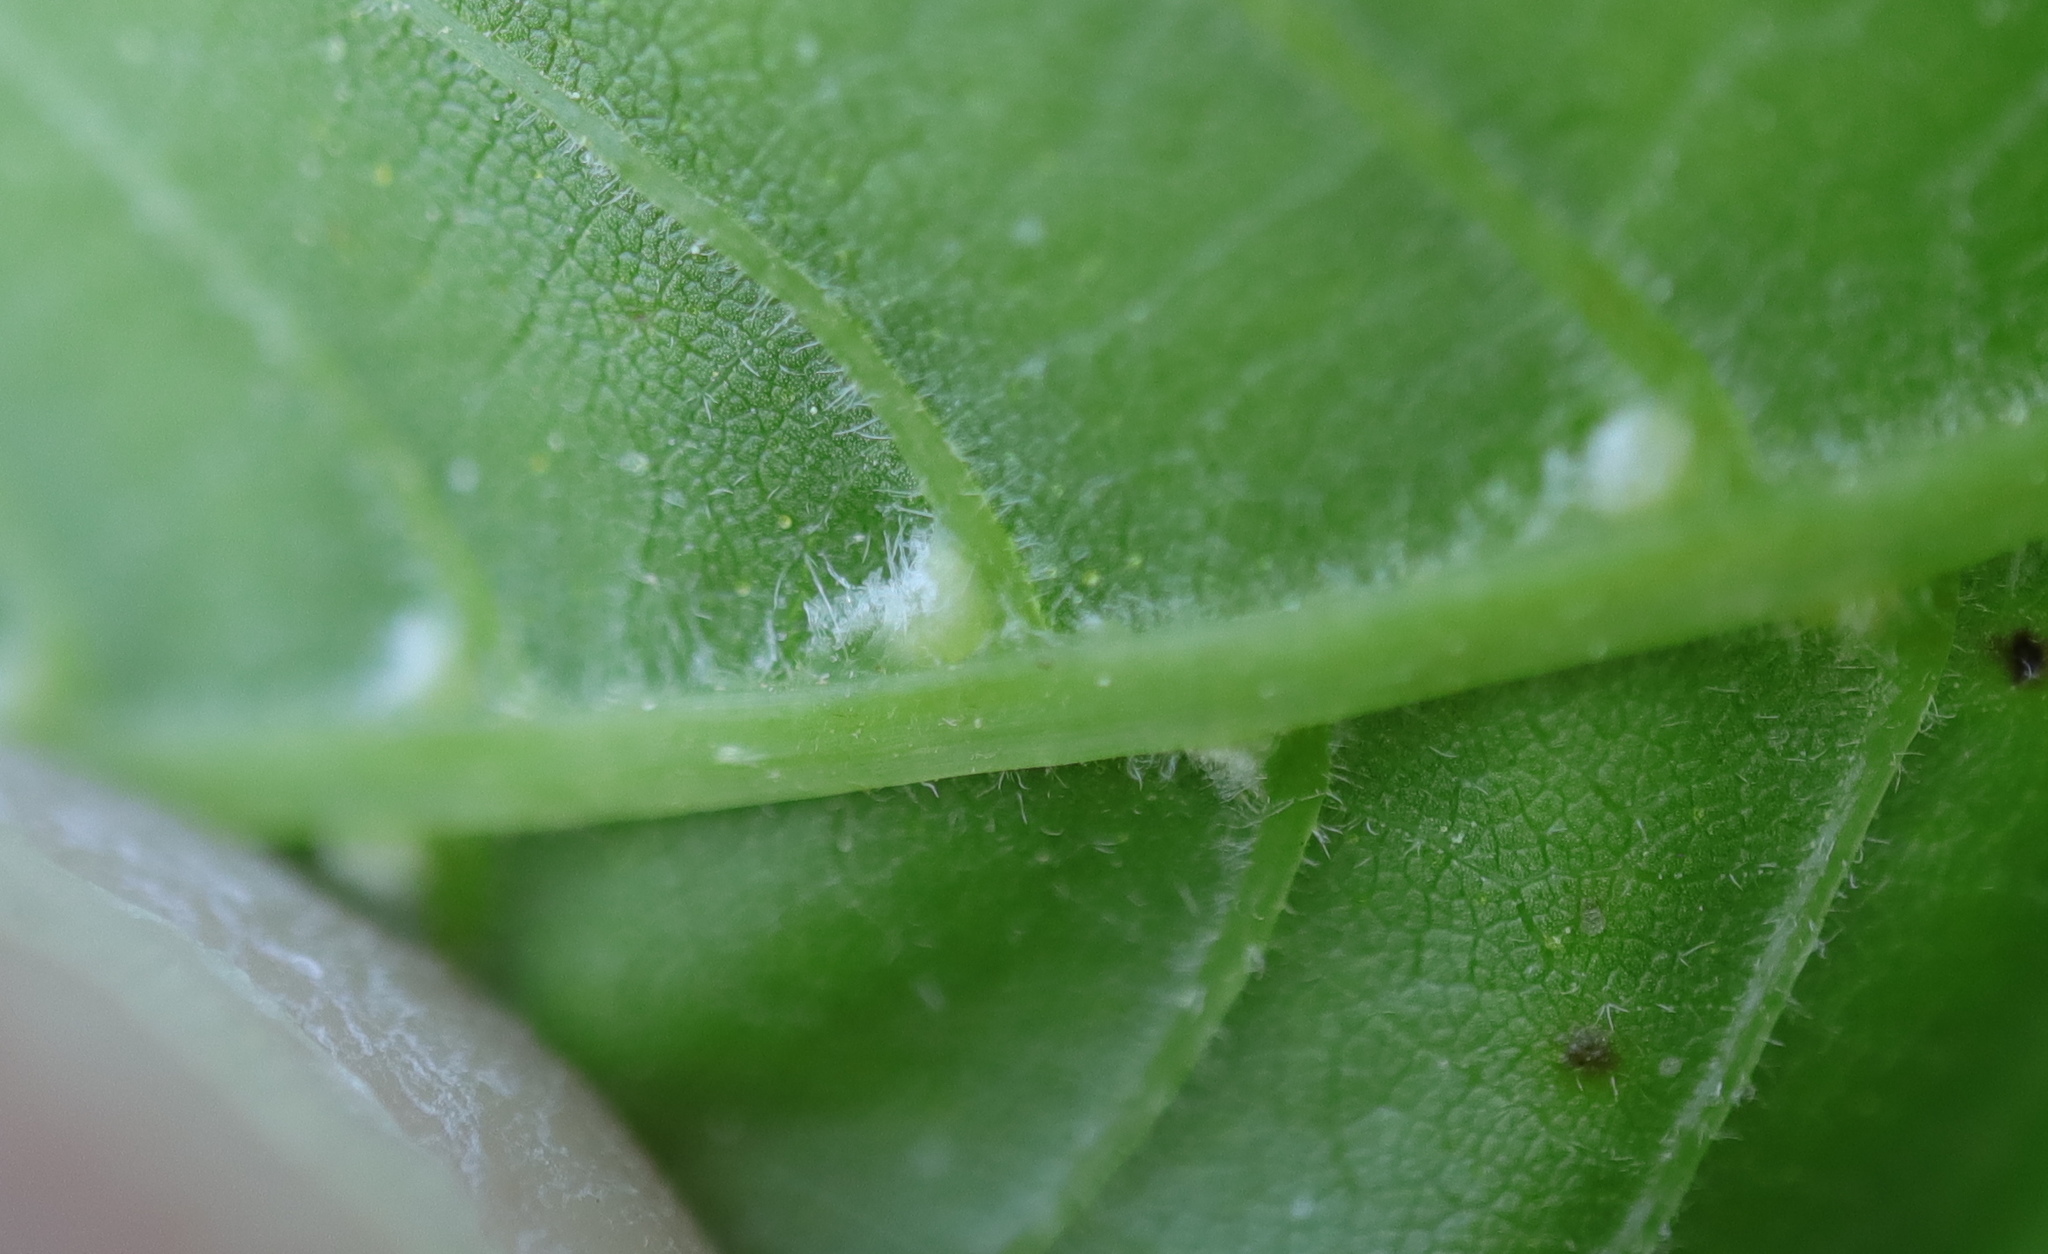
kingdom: Animalia
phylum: Arthropoda
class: Arachnida
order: Trombidiformes
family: Eriophyidae
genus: Aceria
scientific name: Aceria
